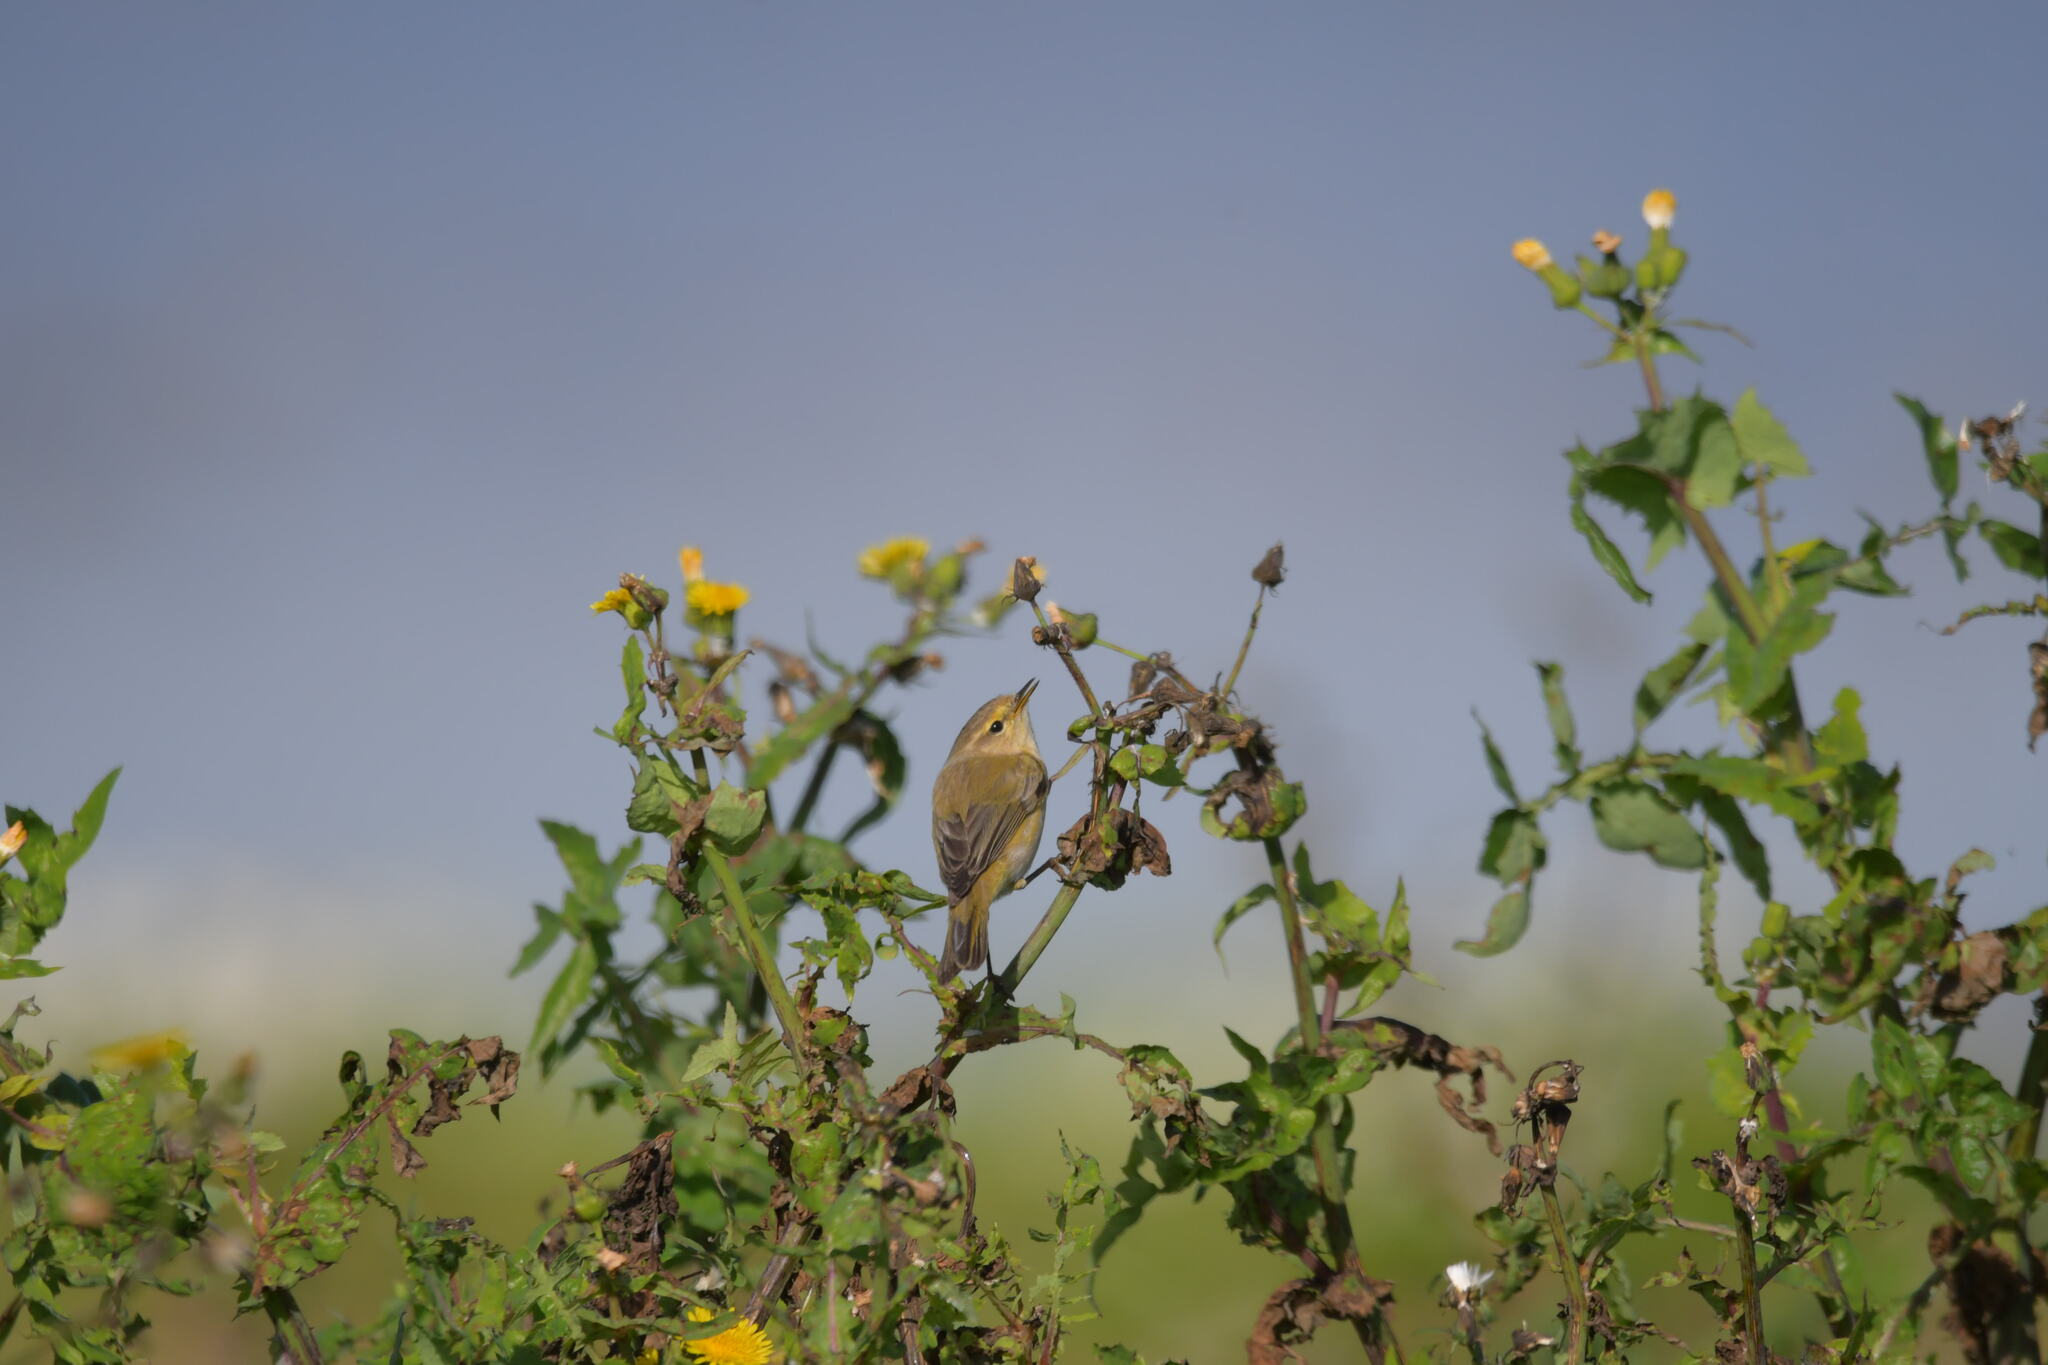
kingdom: Animalia
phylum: Chordata
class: Aves
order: Passeriformes
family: Phylloscopidae
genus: Phylloscopus
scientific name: Phylloscopus collybita
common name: Common chiffchaff
